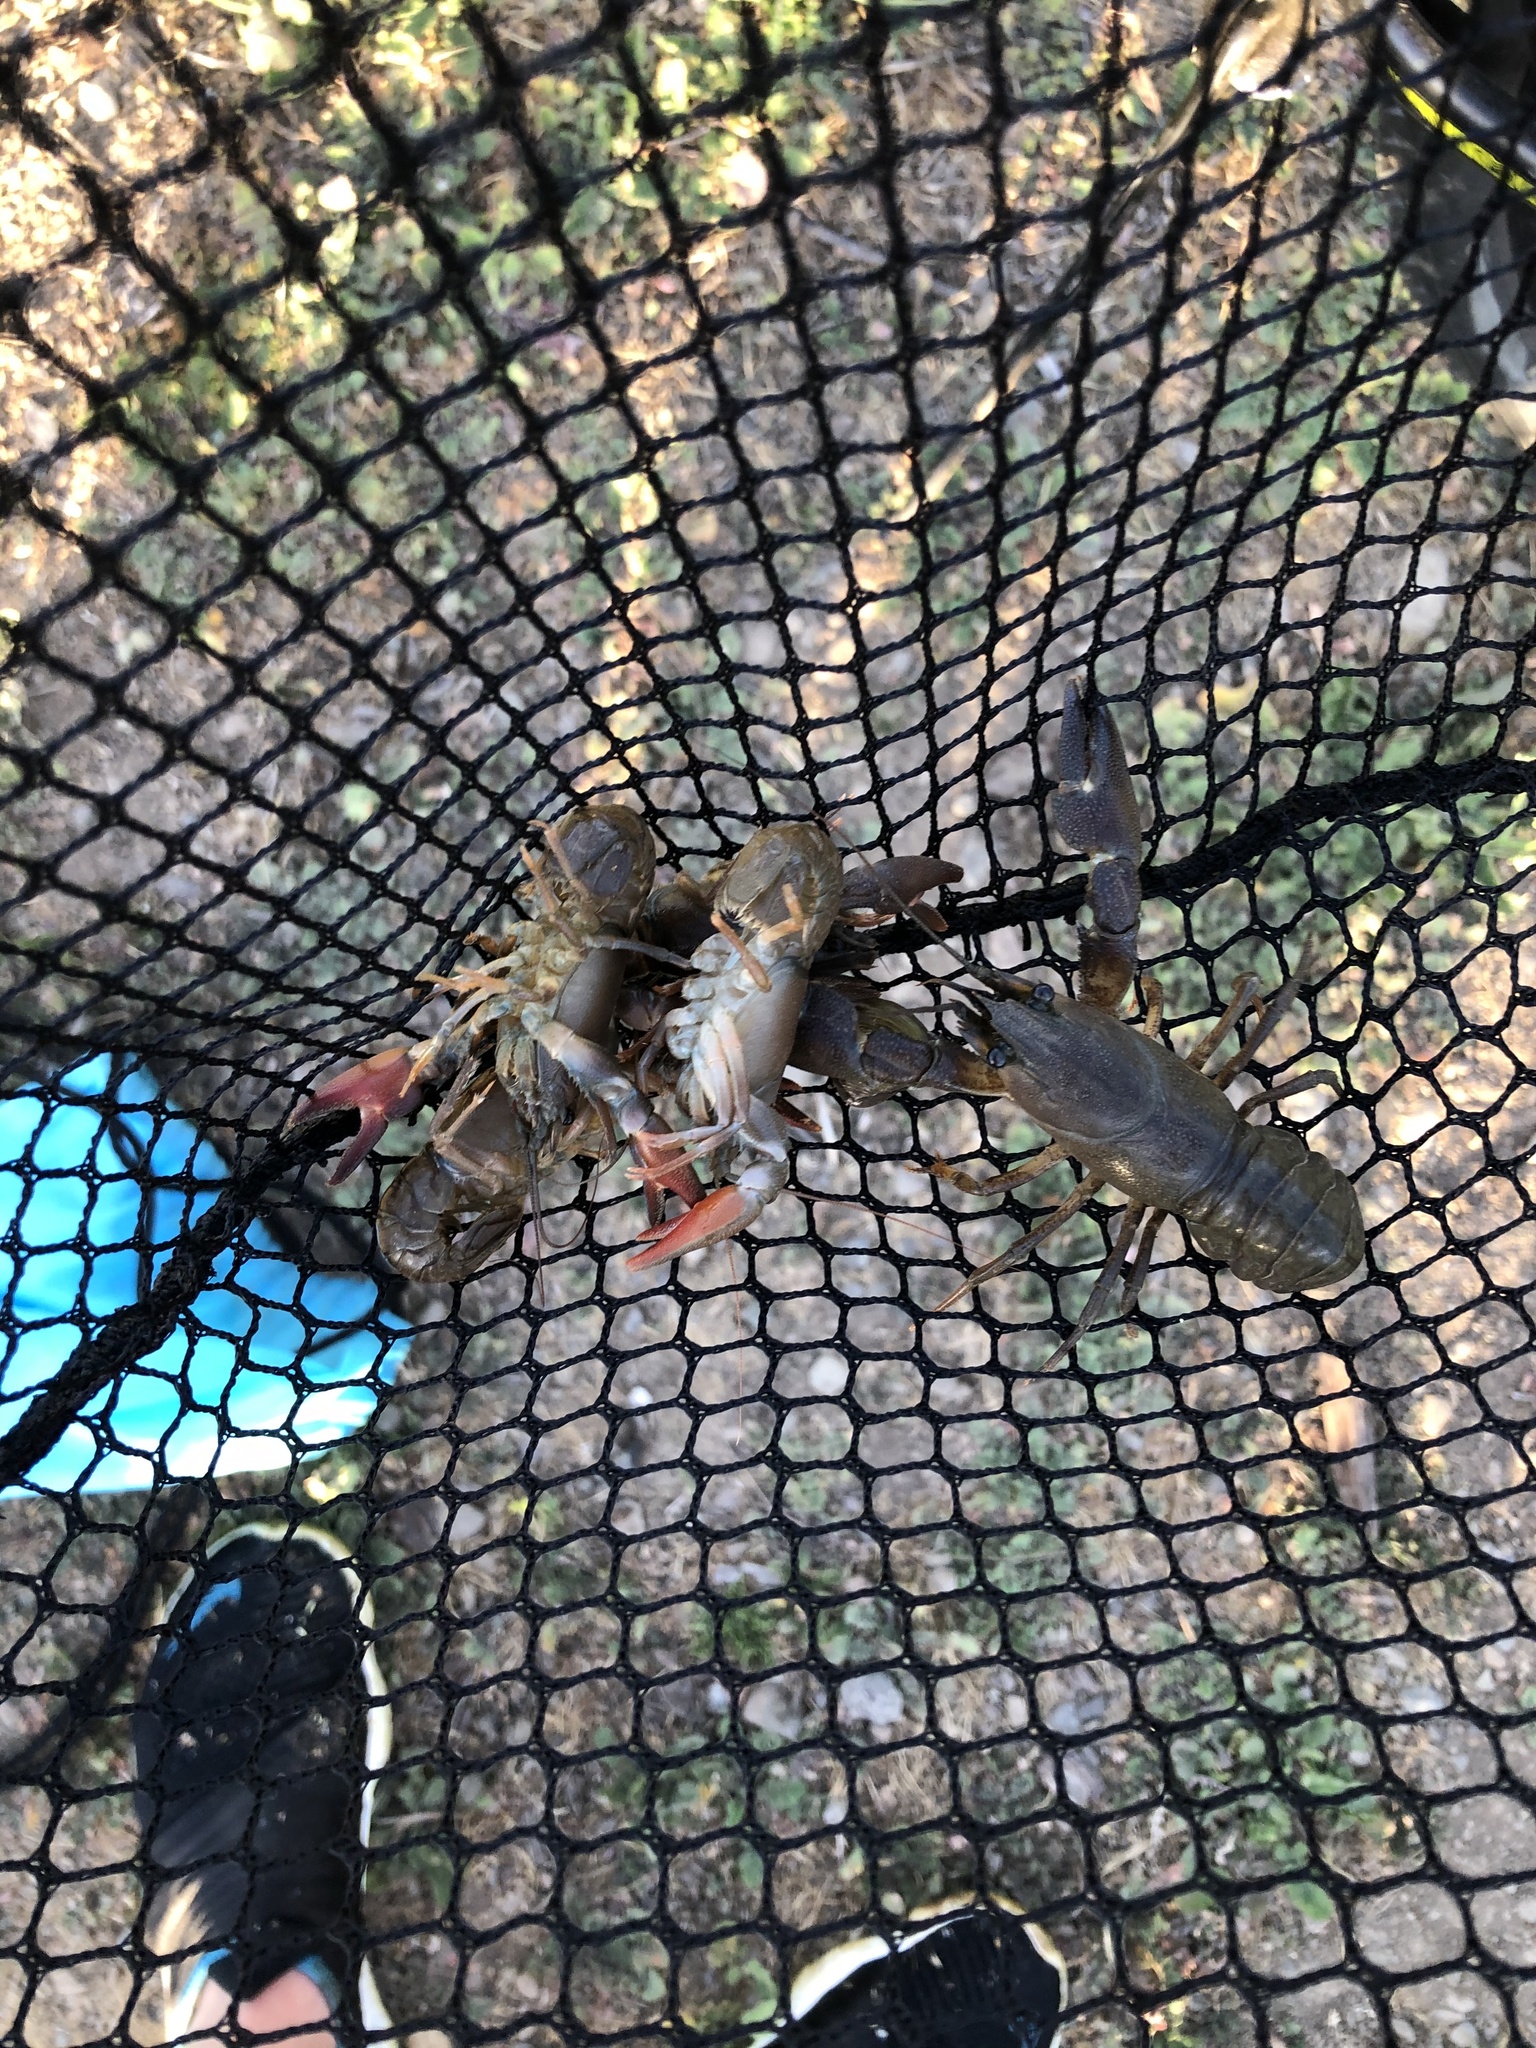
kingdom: Animalia
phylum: Arthropoda
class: Malacostraca
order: Decapoda
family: Astacidae
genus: Pacifastacus
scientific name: Pacifastacus leniusculus
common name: Signal crayfish
